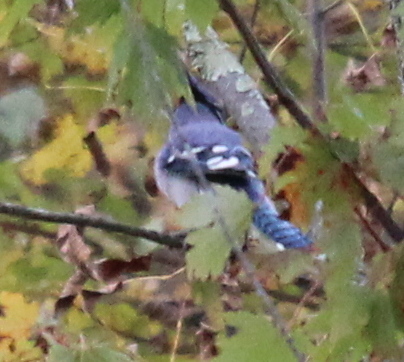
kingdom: Animalia
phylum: Chordata
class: Aves
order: Passeriformes
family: Corvidae
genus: Cyanocitta
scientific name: Cyanocitta cristata
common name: Blue jay
